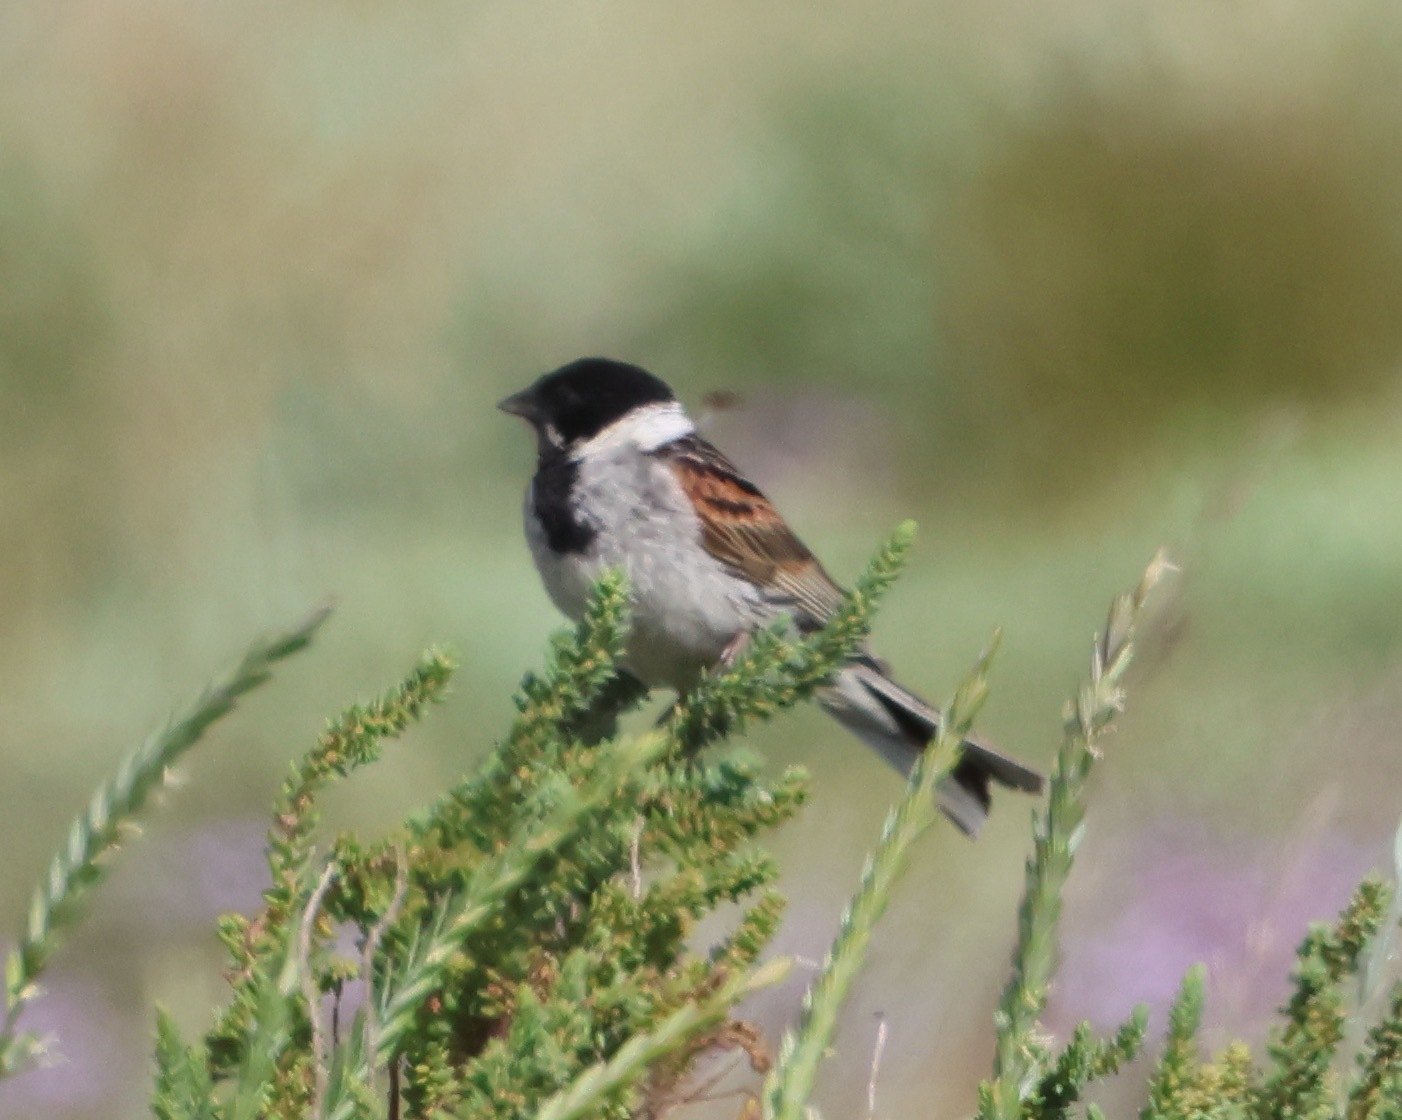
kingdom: Animalia
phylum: Chordata
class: Aves
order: Passeriformes
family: Emberizidae
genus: Emberiza
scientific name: Emberiza schoeniclus
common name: Reed bunting
